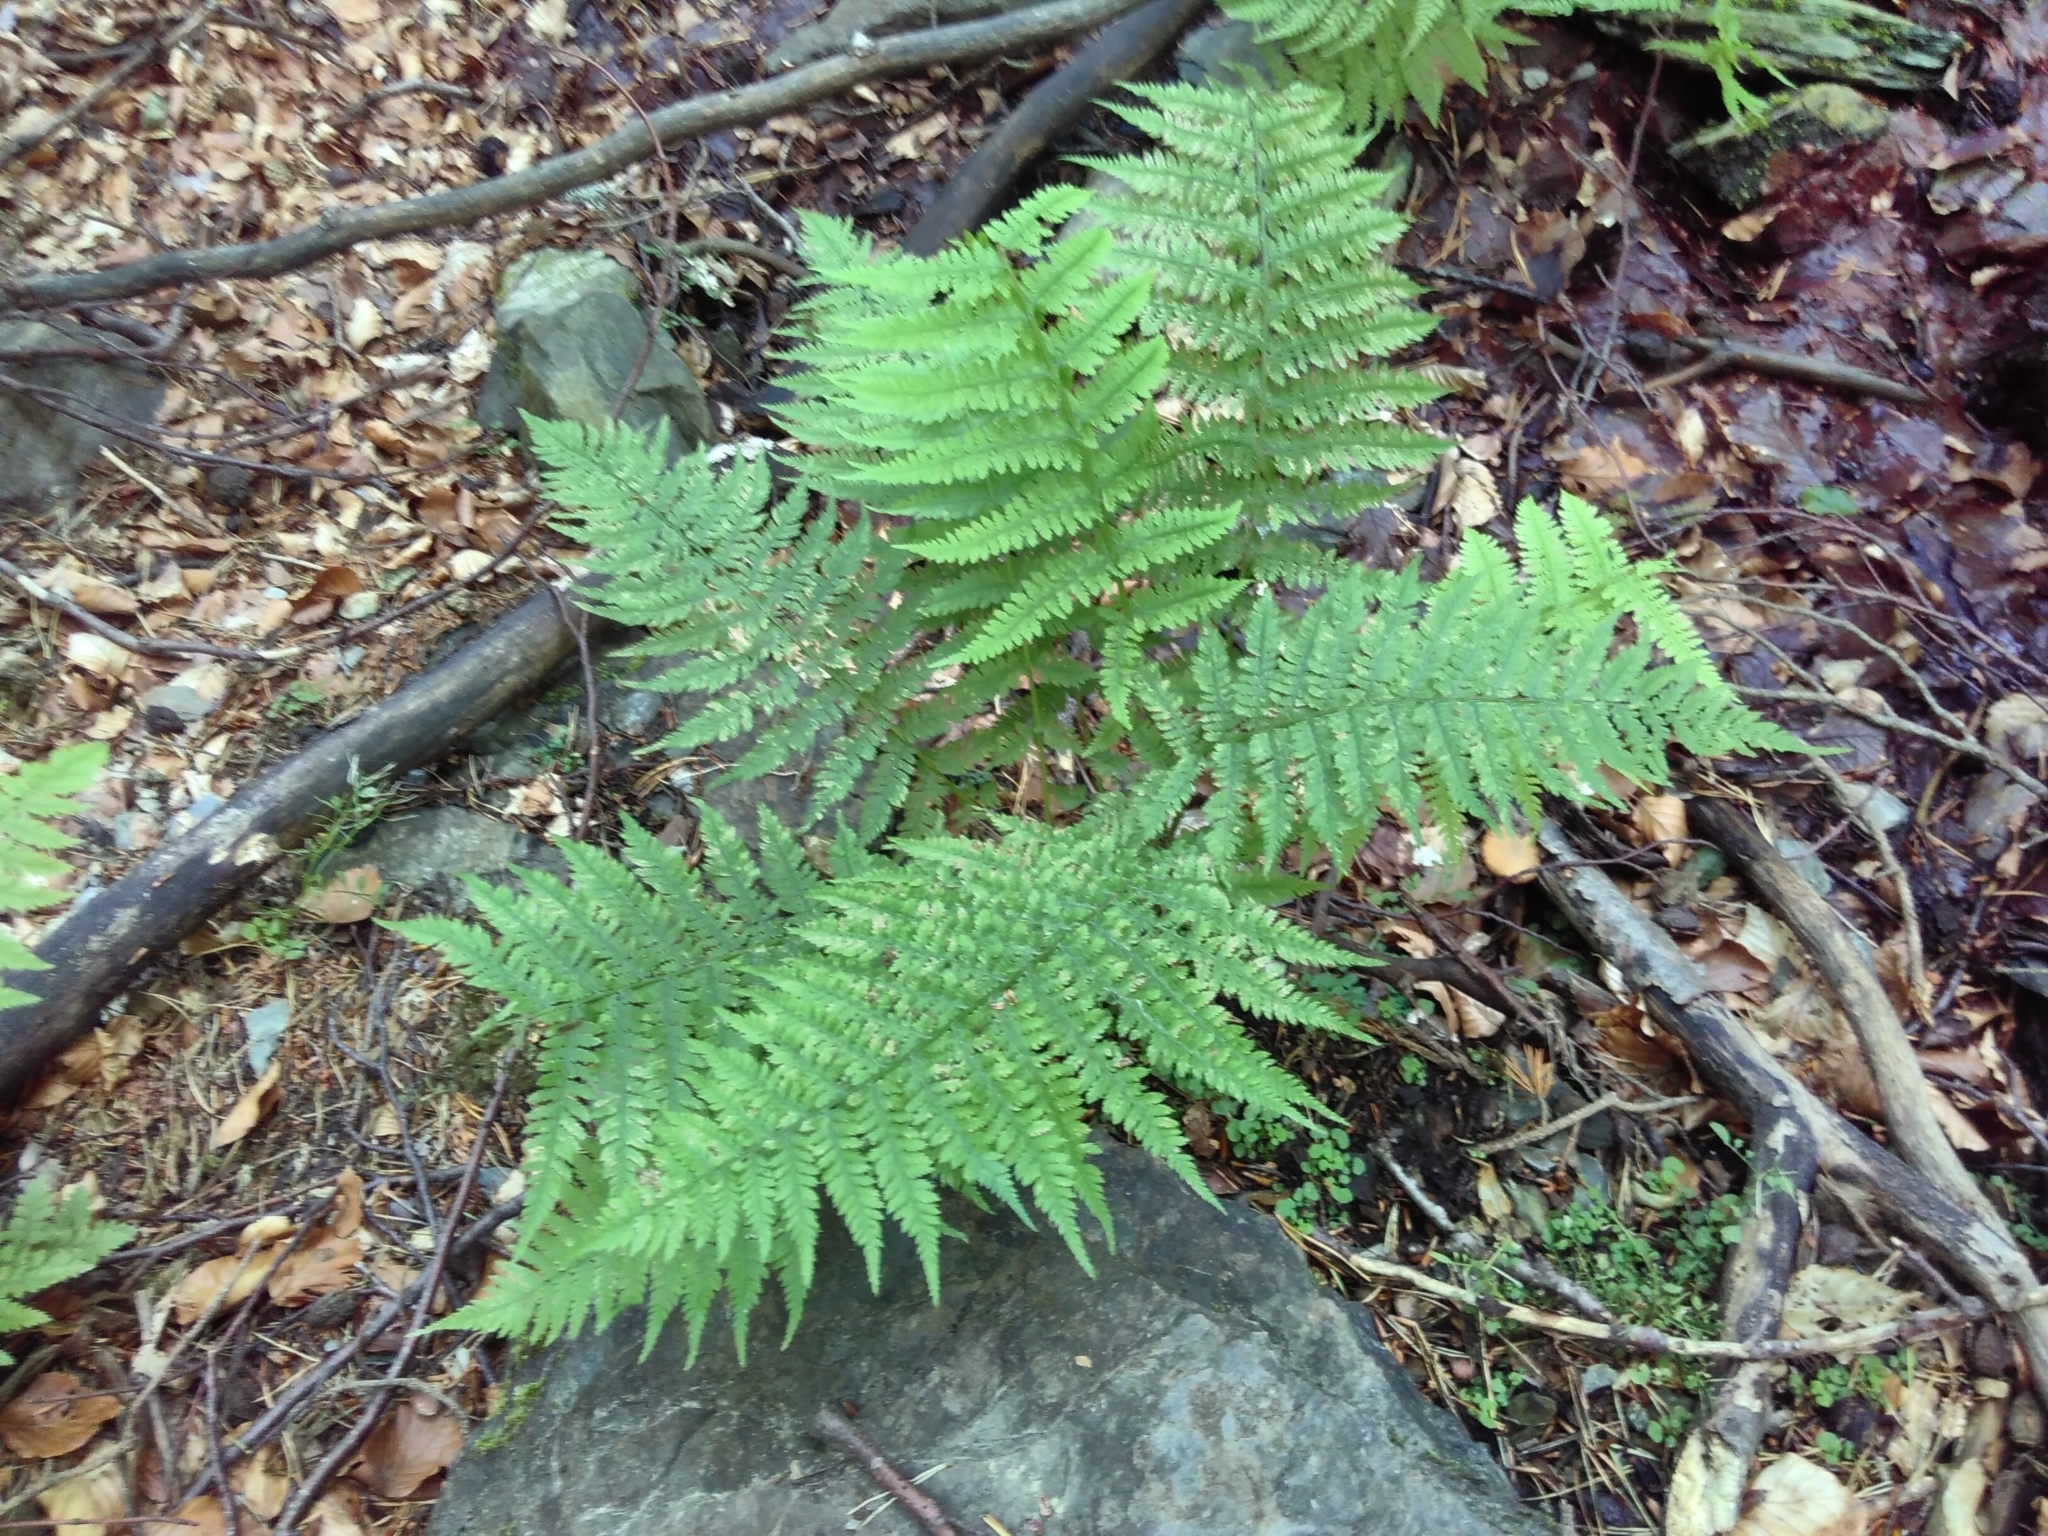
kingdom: Plantae
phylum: Tracheophyta
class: Polypodiopsida
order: Polypodiales
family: Athyriaceae
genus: Athyrium
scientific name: Athyrium filix-femina
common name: Lady fern
